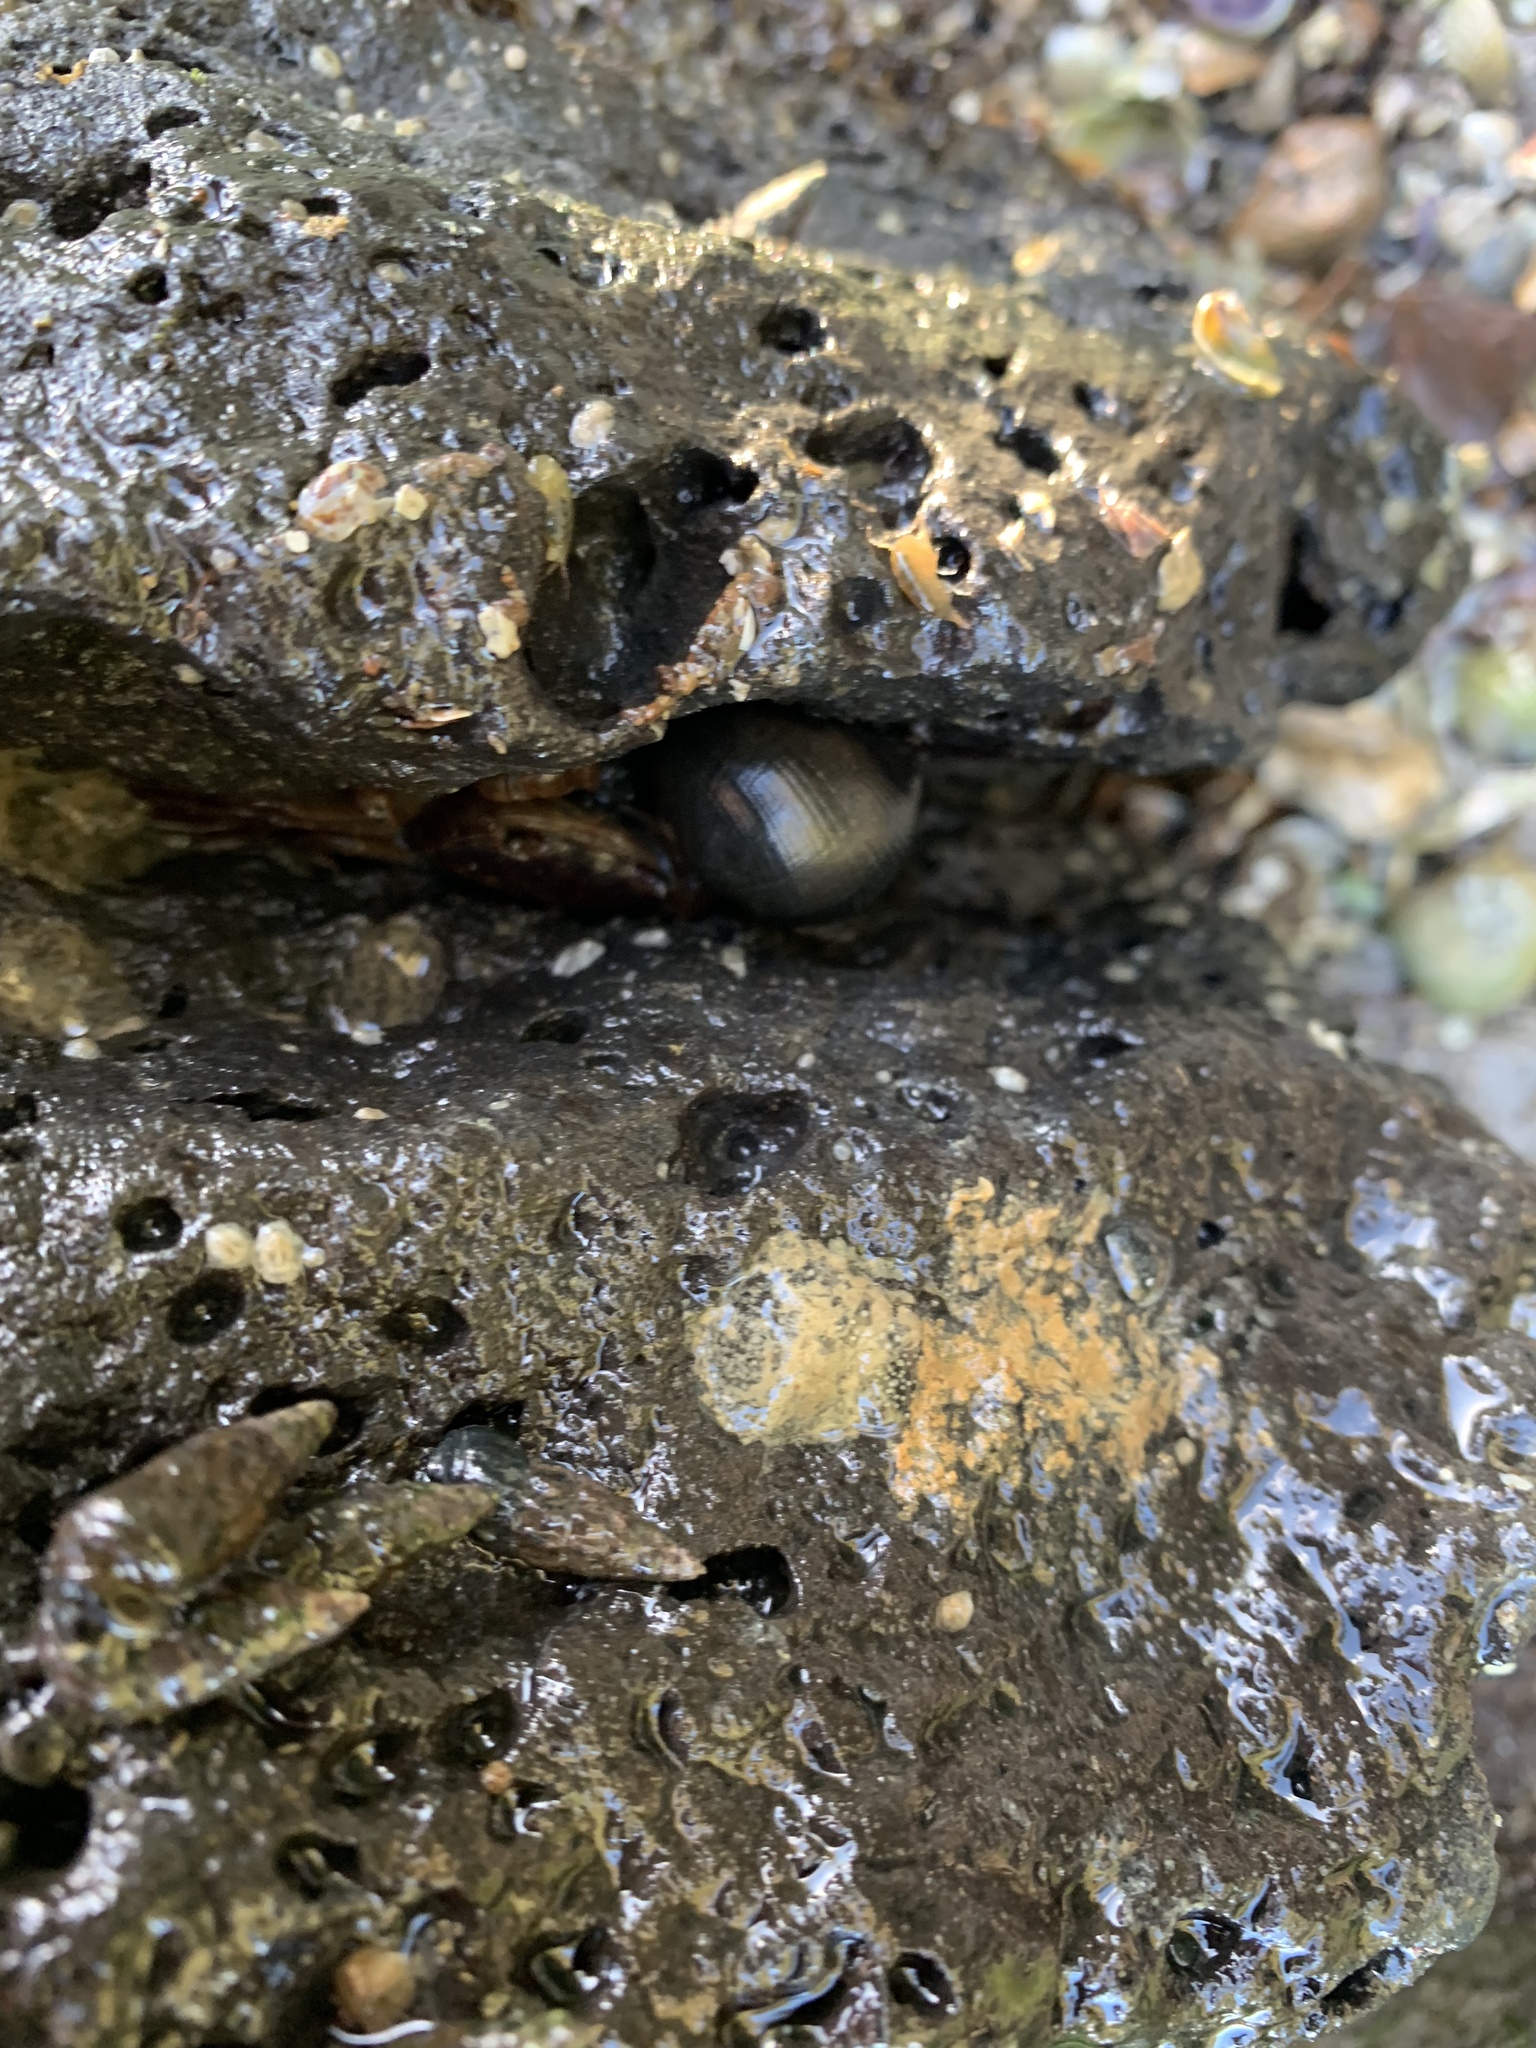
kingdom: Animalia
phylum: Mollusca
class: Gastropoda
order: Cycloneritida
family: Neritidae
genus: Nerita
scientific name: Nerita melanotragus
